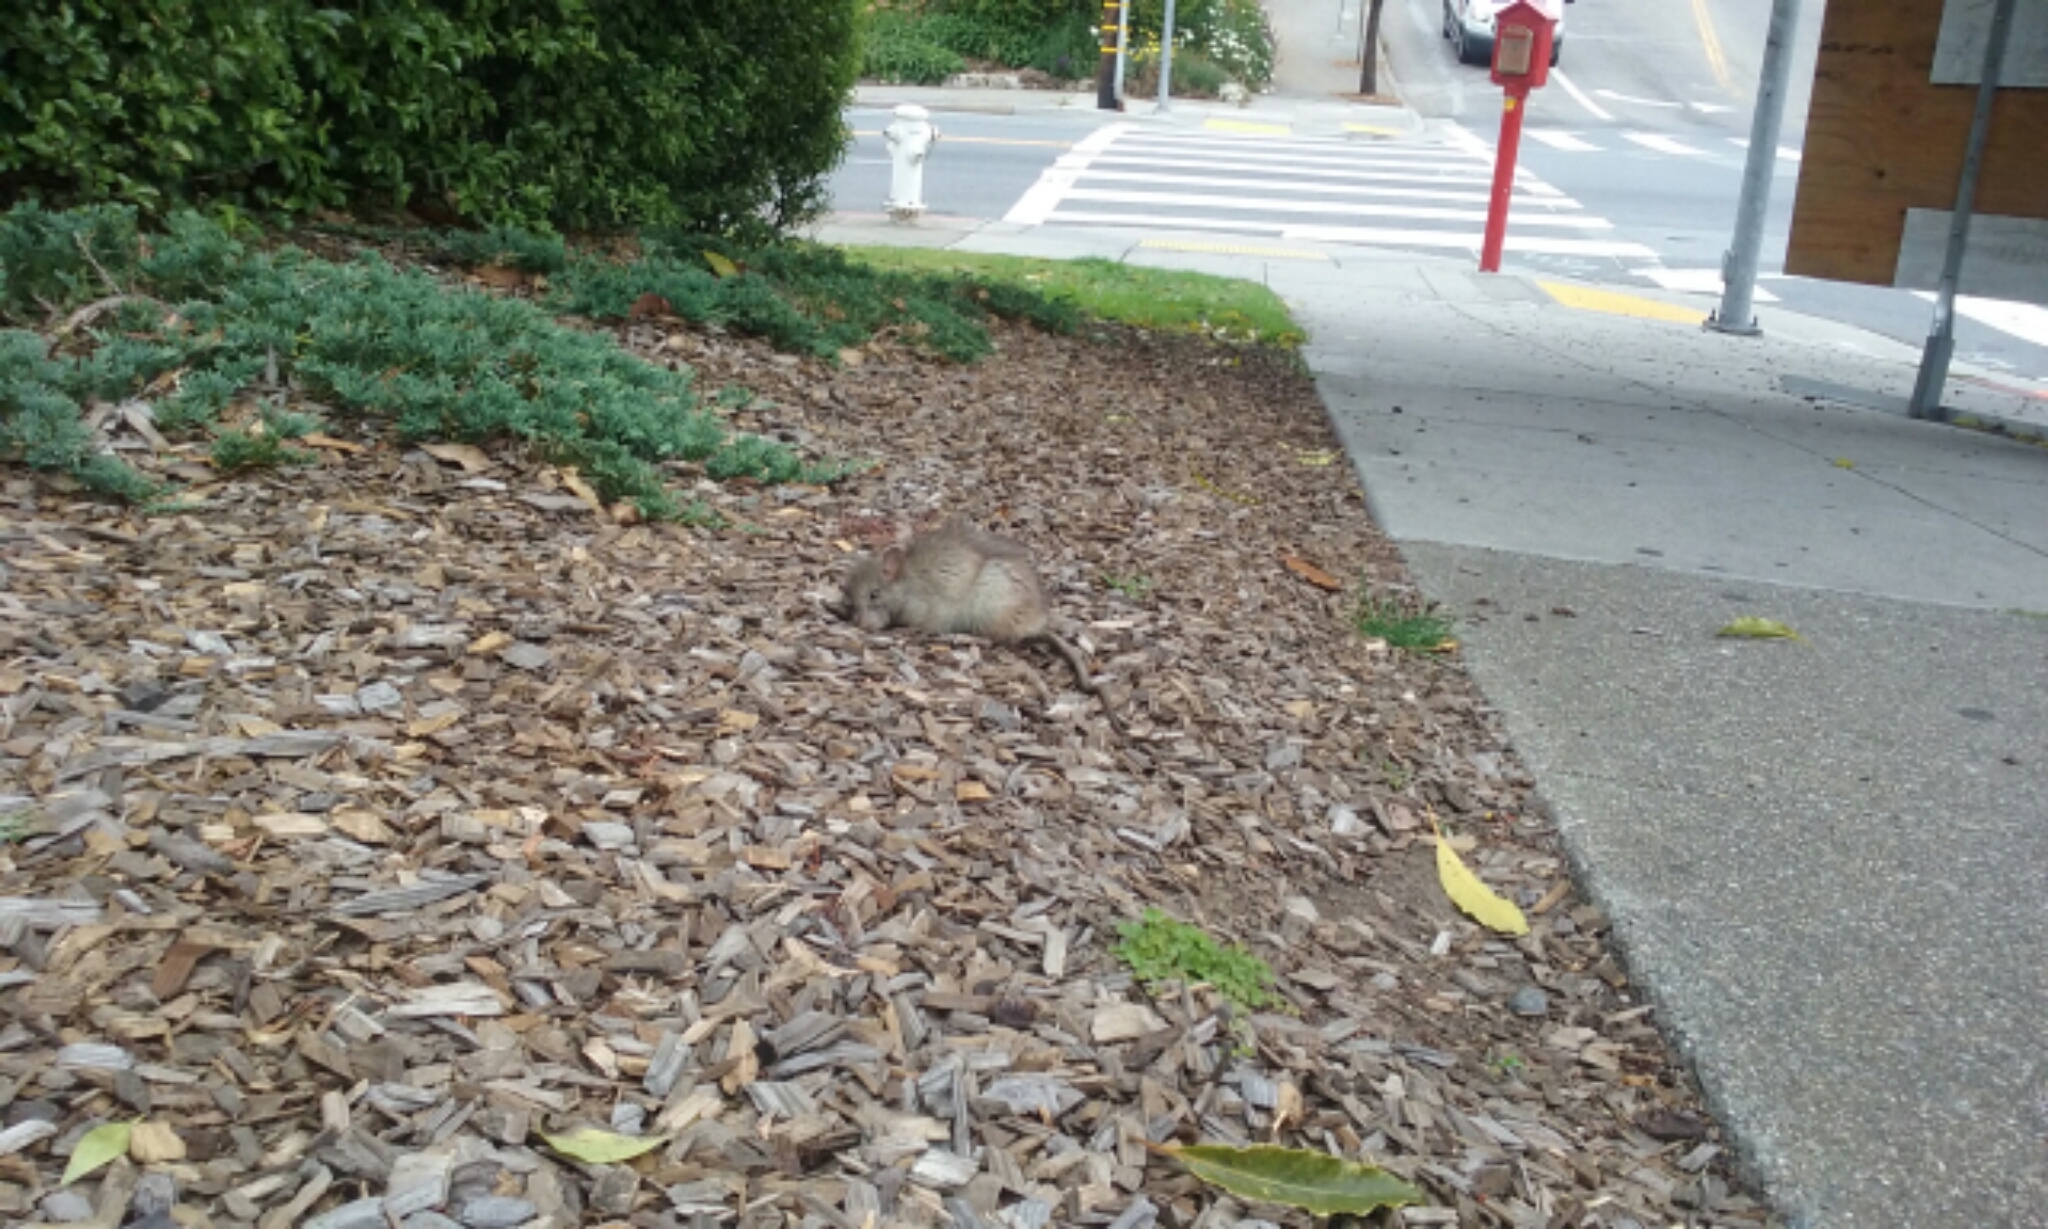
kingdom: Animalia
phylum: Chordata
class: Mammalia
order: Rodentia
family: Muridae
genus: Rattus
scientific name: Rattus rattus
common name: Black rat
